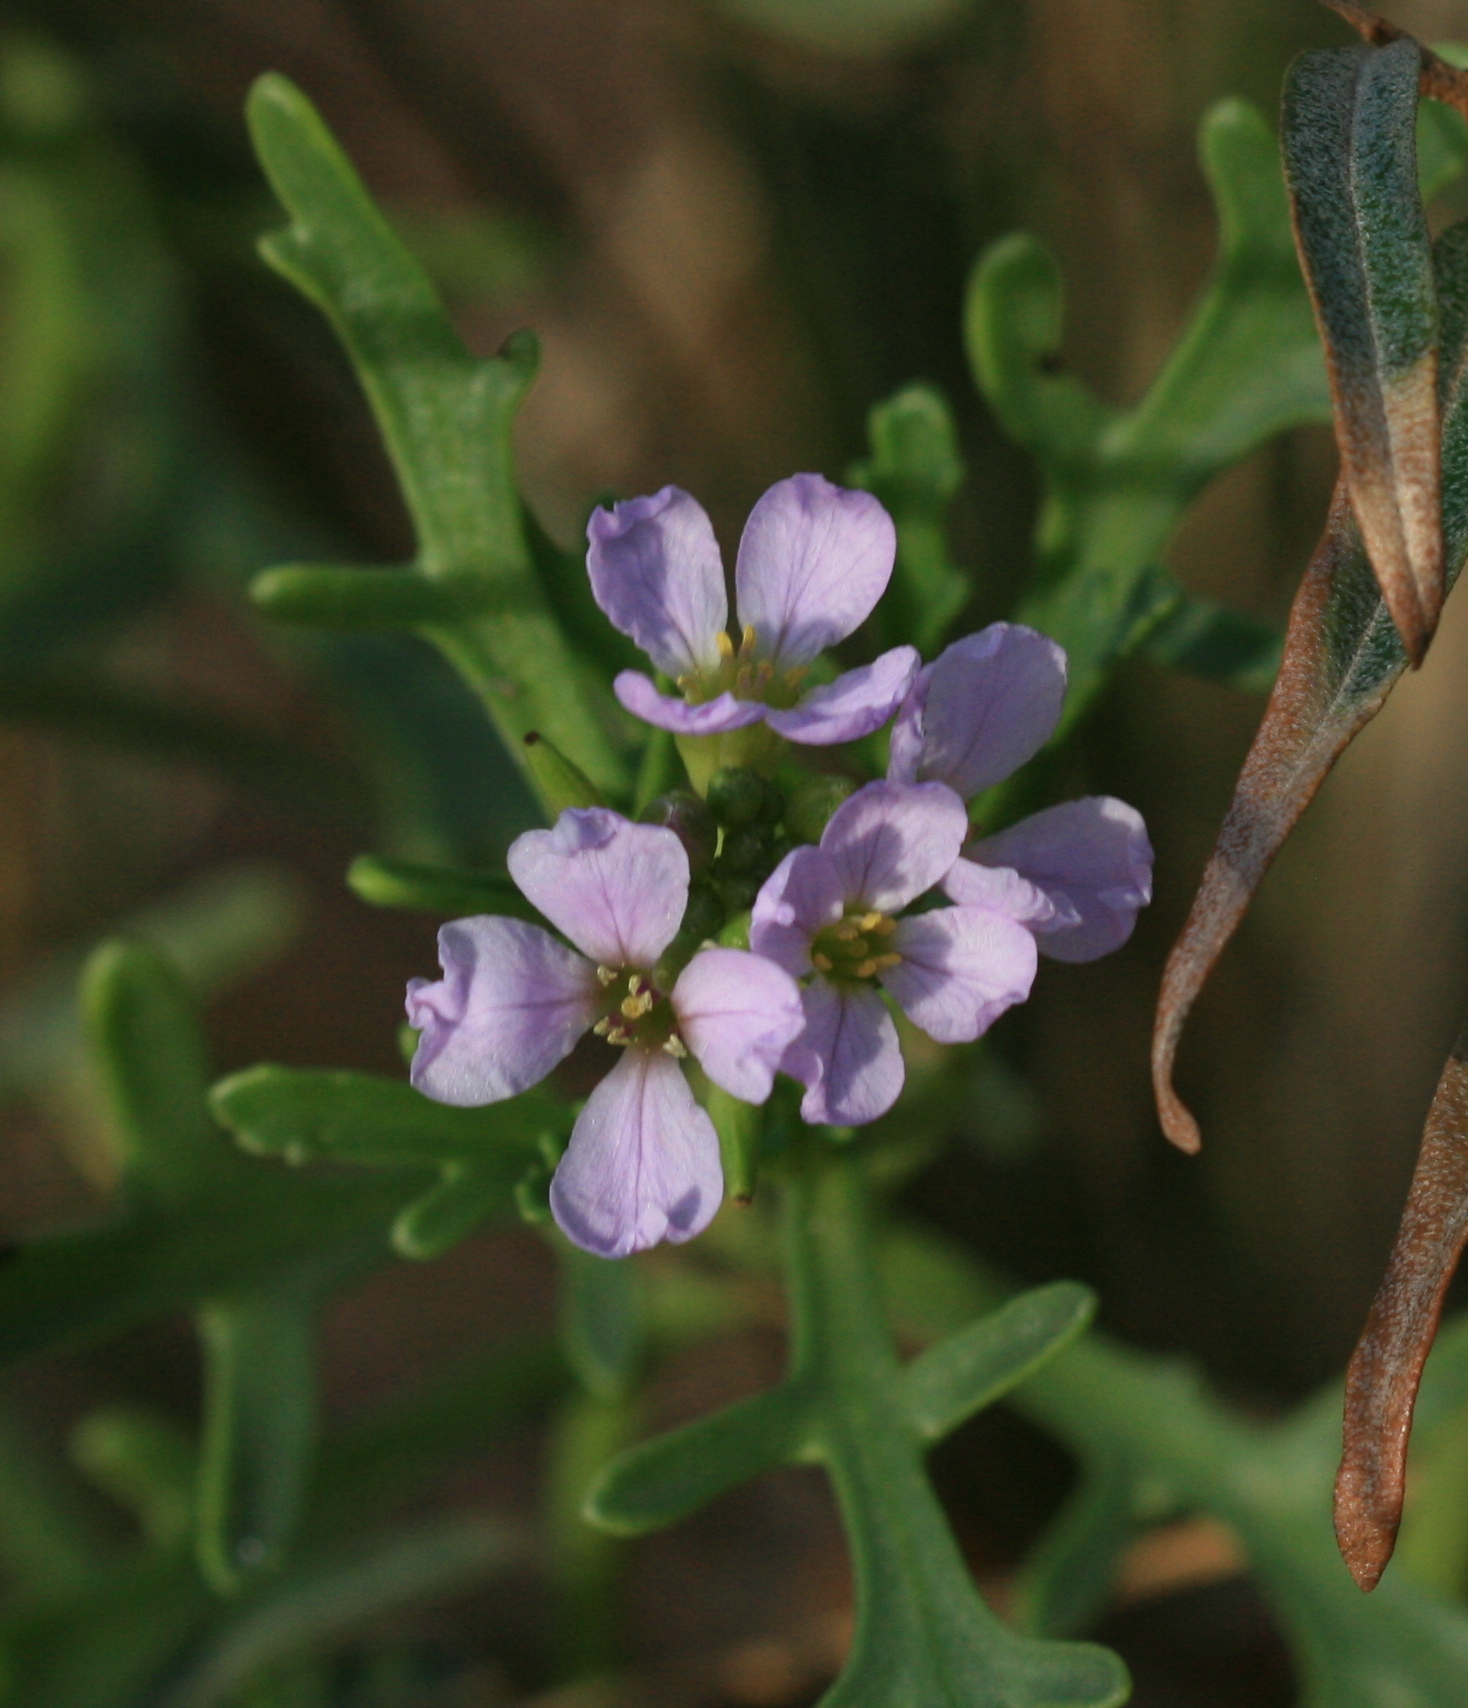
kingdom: Plantae
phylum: Tracheophyta
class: Magnoliopsida
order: Brassicales
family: Brassicaceae
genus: Cakile
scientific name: Cakile maritima
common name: Sea rocket
